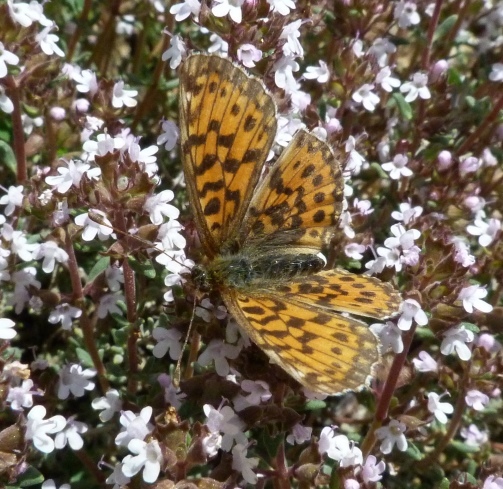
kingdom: Animalia
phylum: Arthropoda
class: Insecta
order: Lepidoptera
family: Nymphalidae
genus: Boloria
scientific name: Boloria dia
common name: Weaver's fritillary
